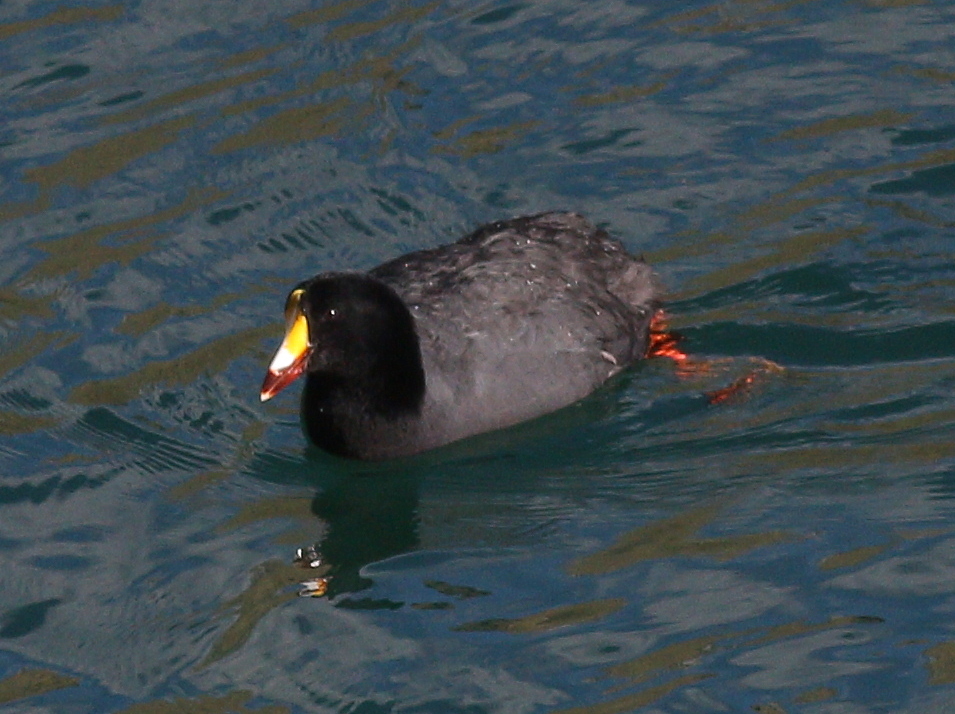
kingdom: Animalia
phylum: Chordata
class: Aves
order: Gruiformes
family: Rallidae
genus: Fulica
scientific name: Fulica gigantea
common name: Giant coot
